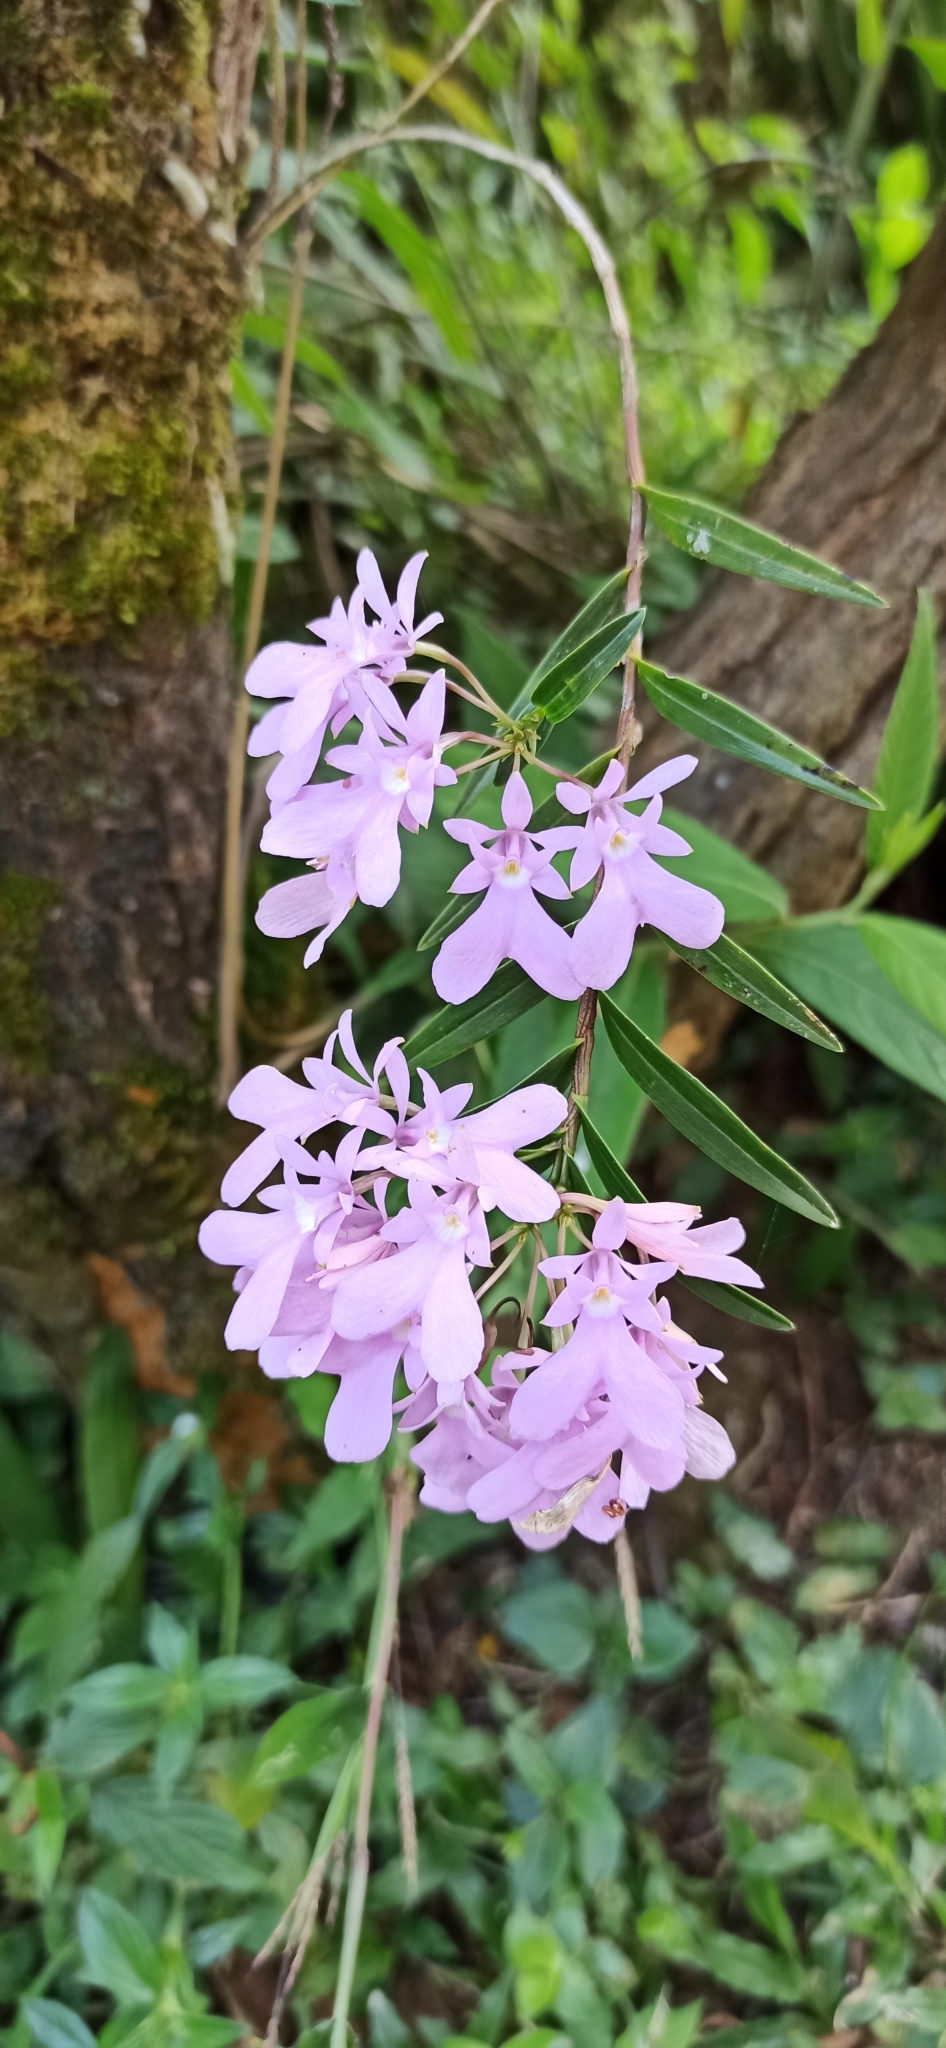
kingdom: Plantae
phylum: Tracheophyta
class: Liliopsida
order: Asparagales
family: Orchidaceae
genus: Epidendrum
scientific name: Epidendrum centropetalum
